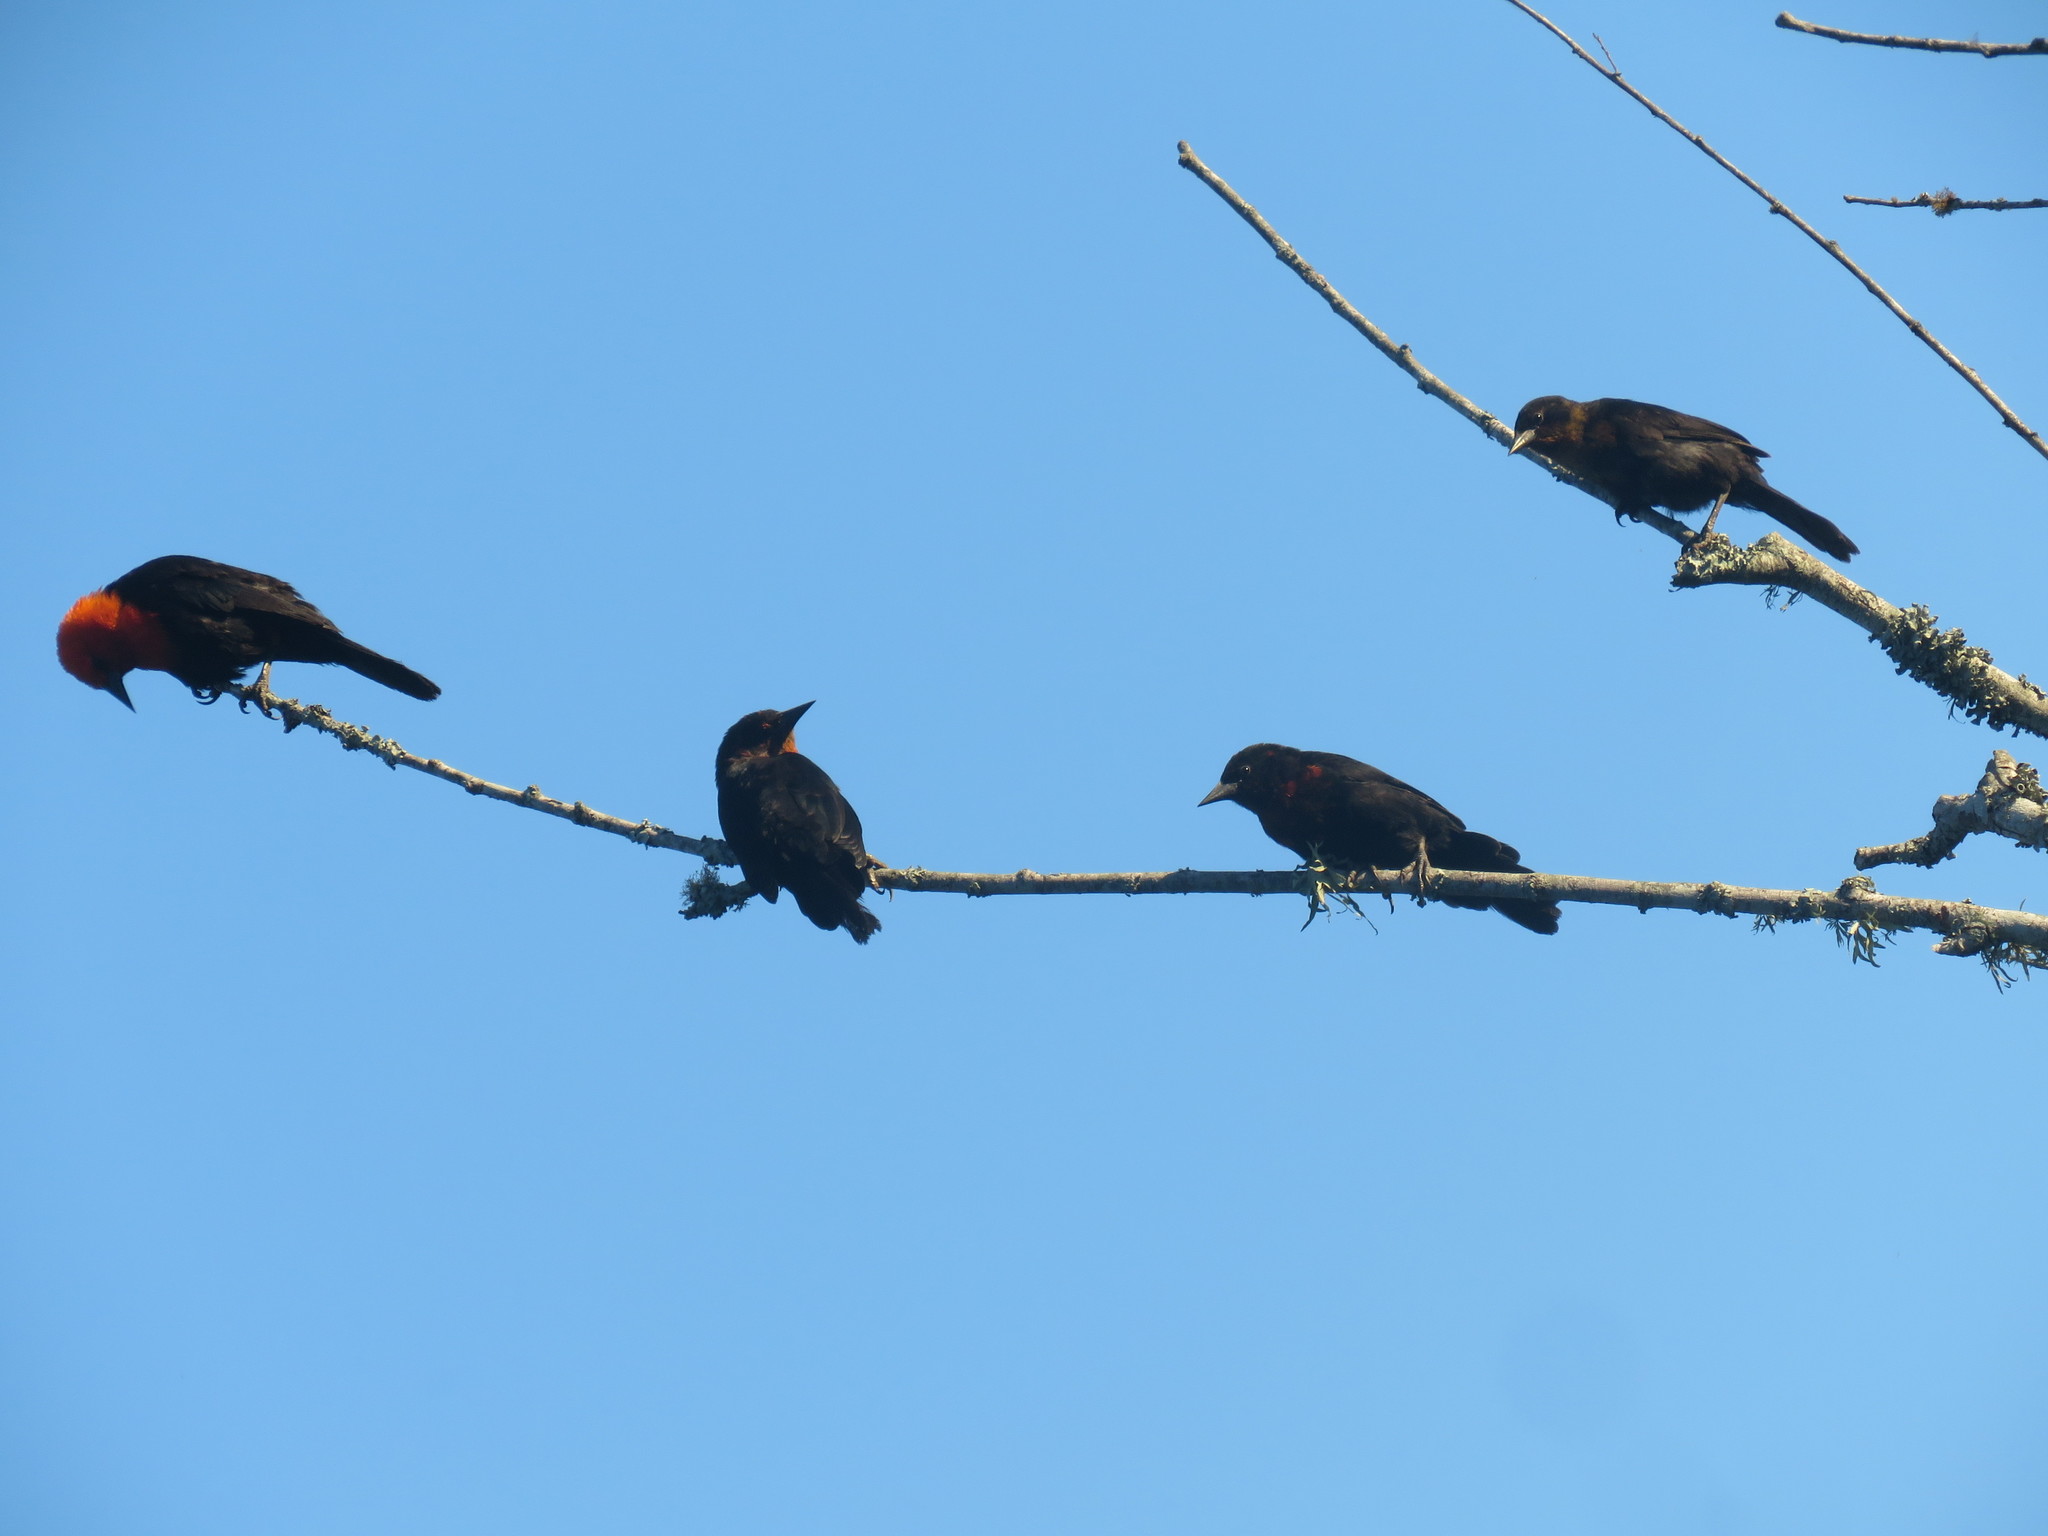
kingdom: Animalia
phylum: Chordata
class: Aves
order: Passeriformes
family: Icteridae
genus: Amblyramphus
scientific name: Amblyramphus holosericeus
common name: Scarlet-headed blackbird
